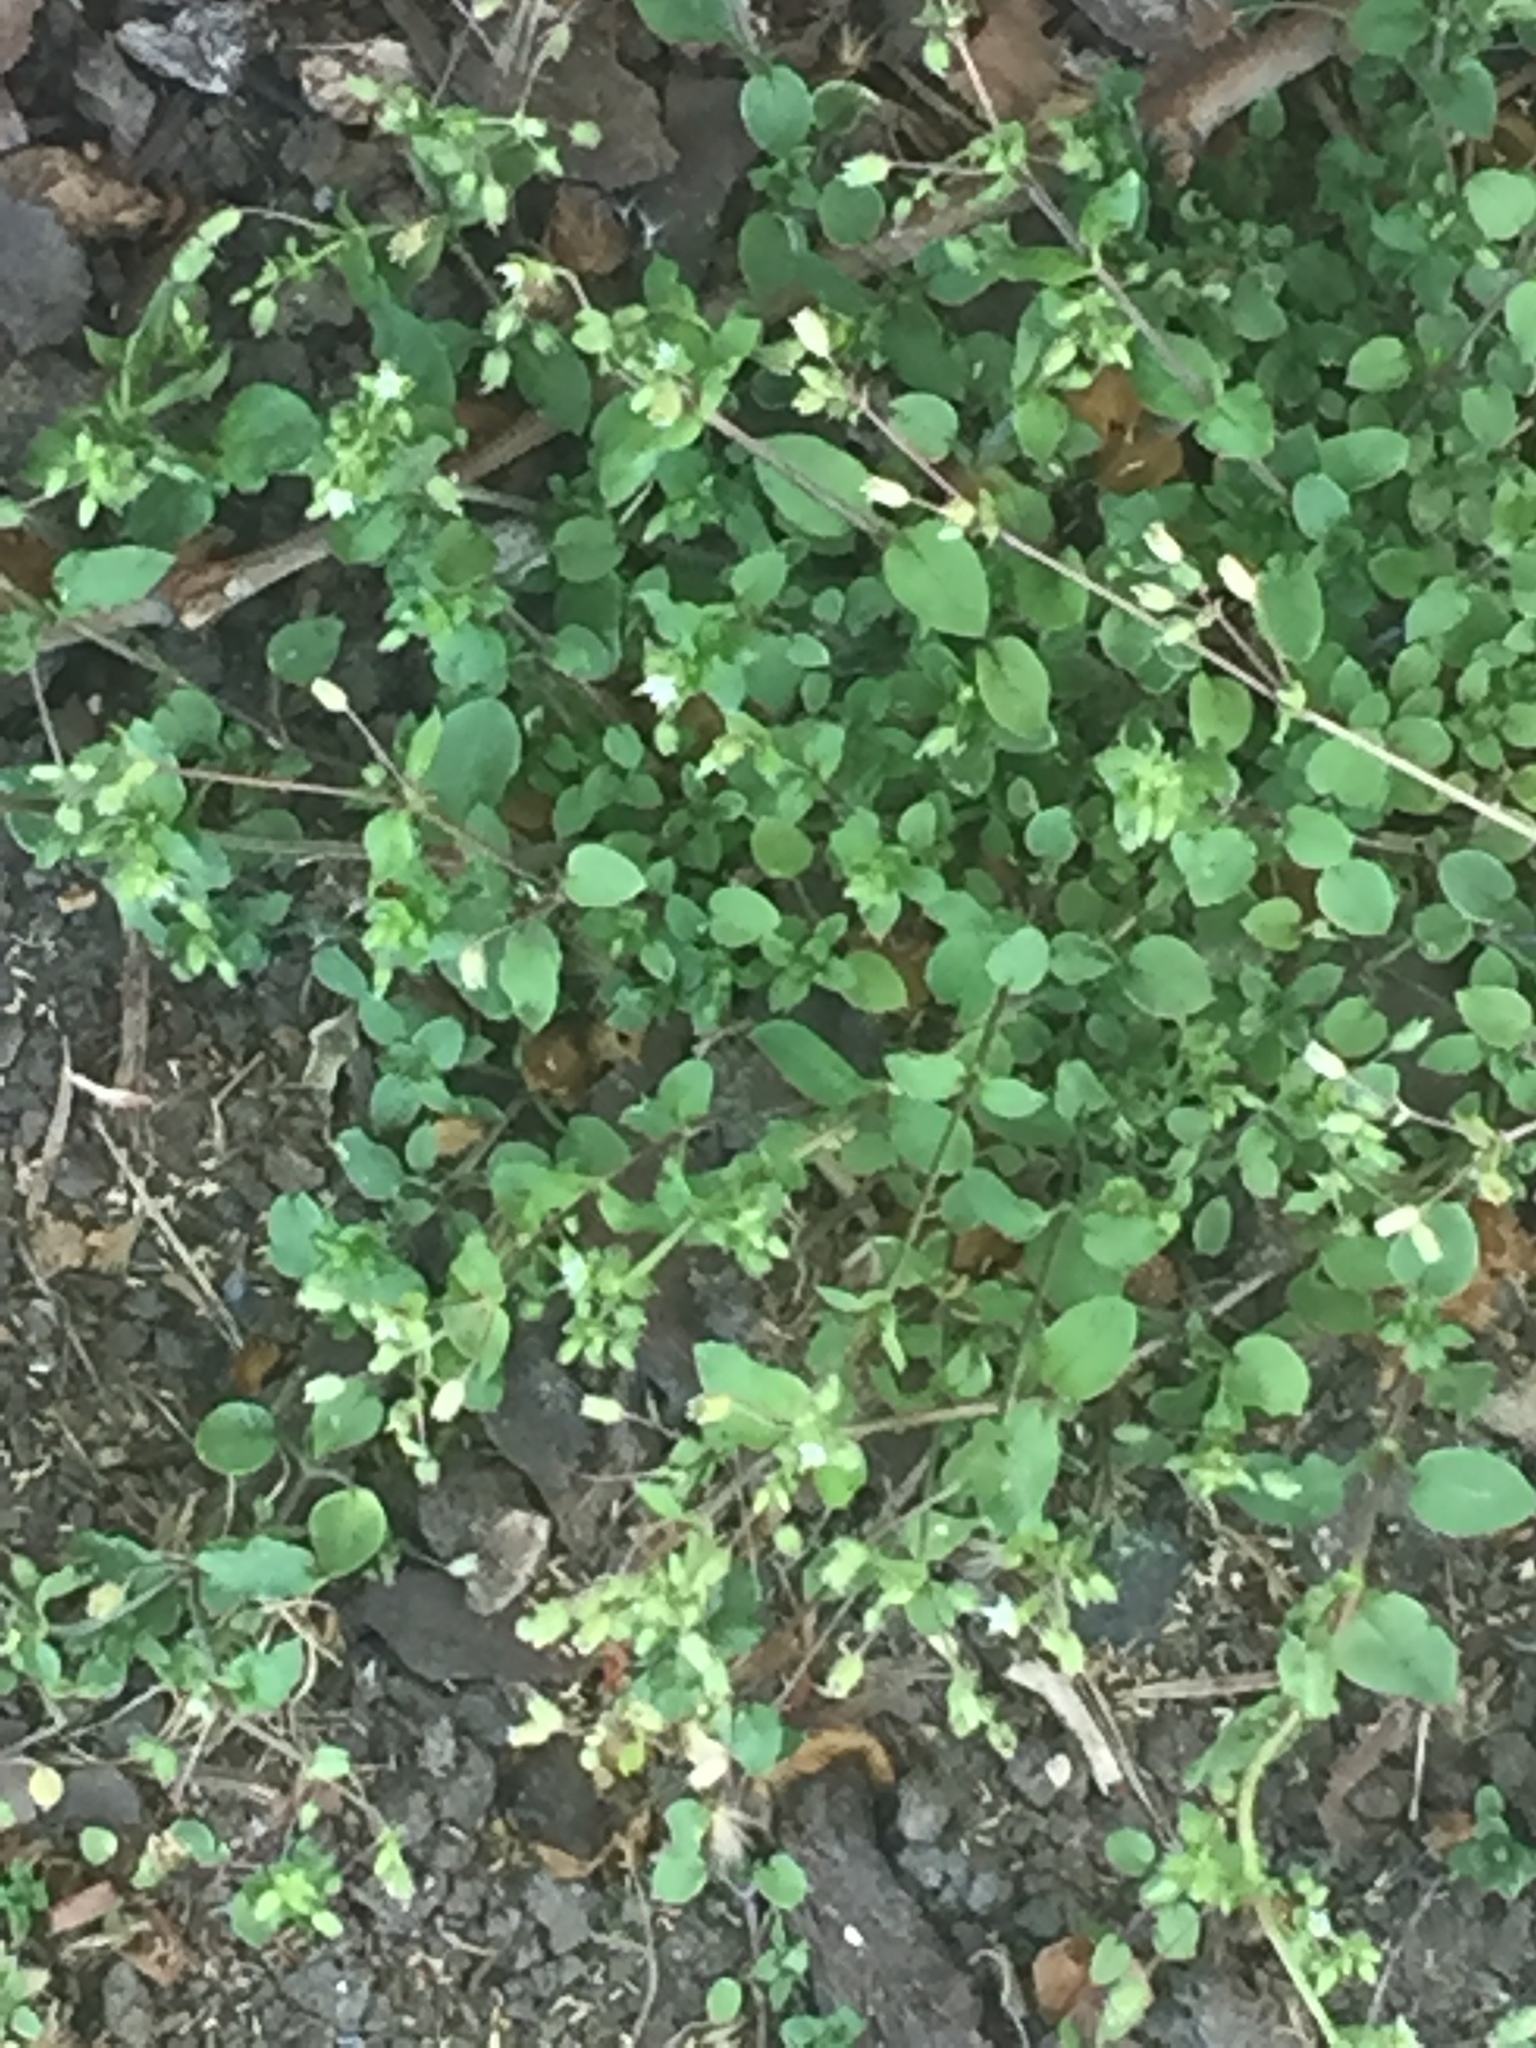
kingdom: Plantae
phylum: Tracheophyta
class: Magnoliopsida
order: Caryophyllales
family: Caryophyllaceae
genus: Stellaria
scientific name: Stellaria media
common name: Common chickweed
